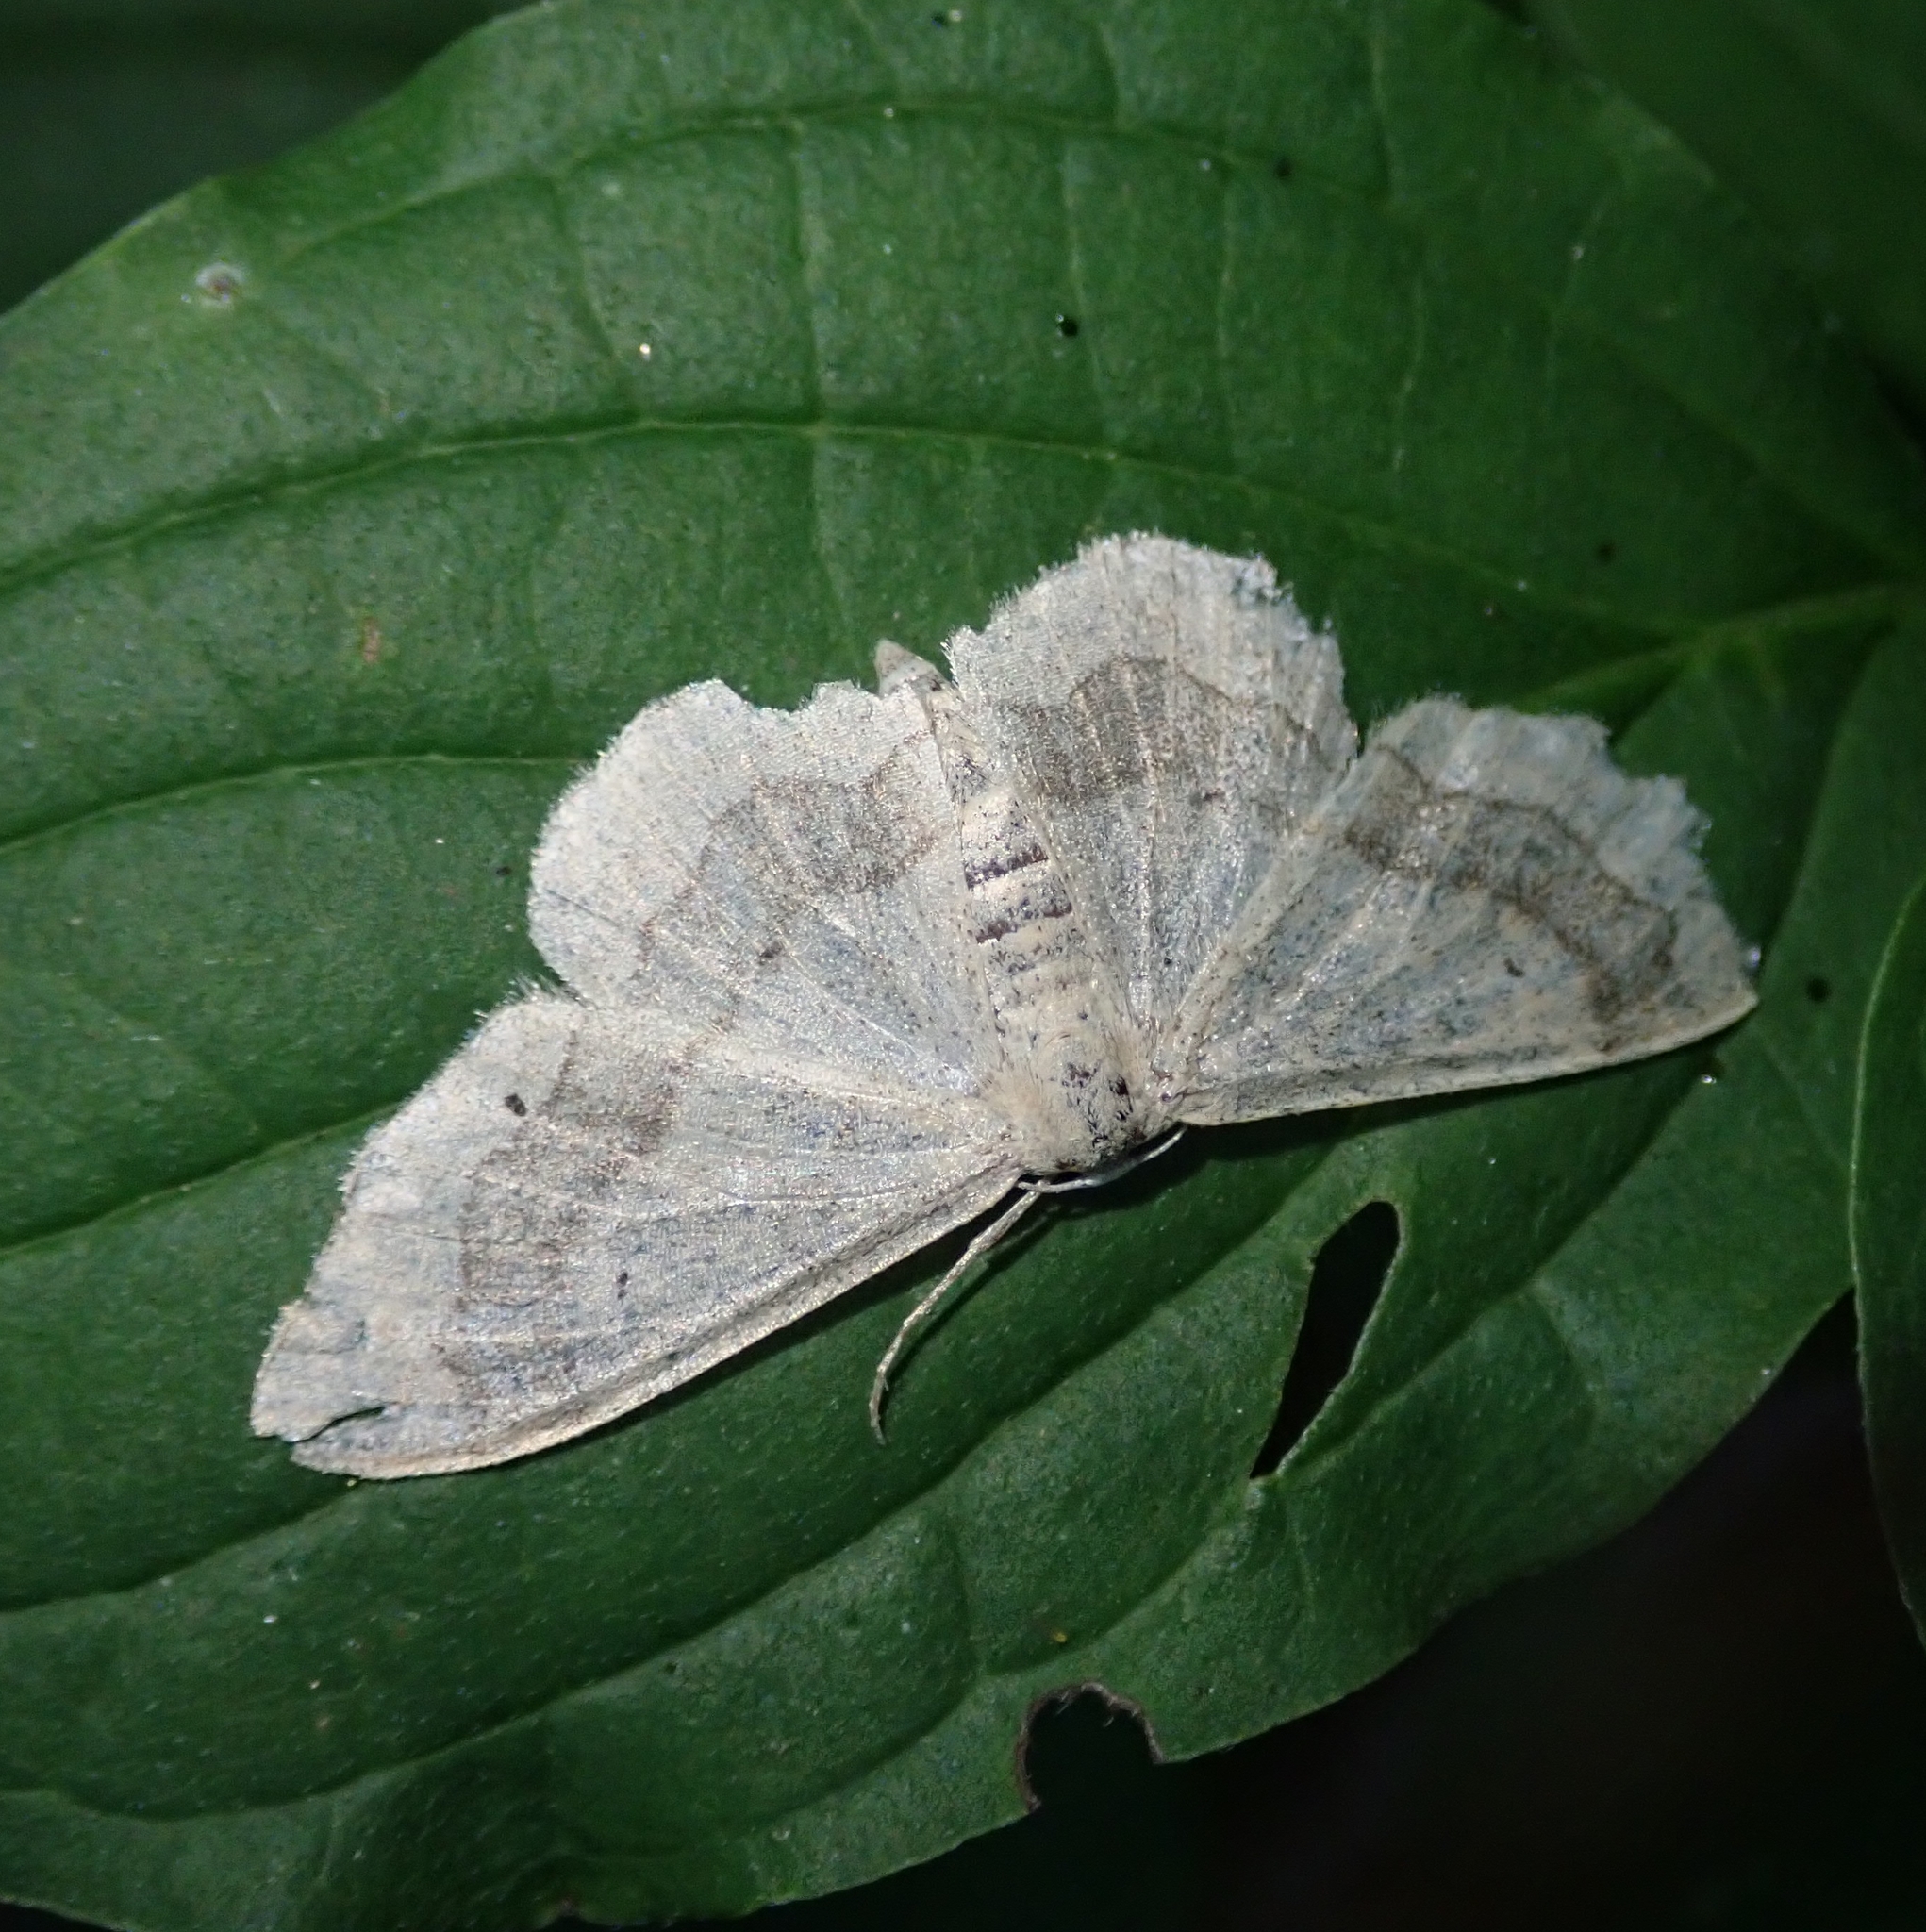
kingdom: Animalia
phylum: Arthropoda
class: Insecta
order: Lepidoptera
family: Geometridae
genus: Idaea
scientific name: Idaea aversata
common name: Riband wave
